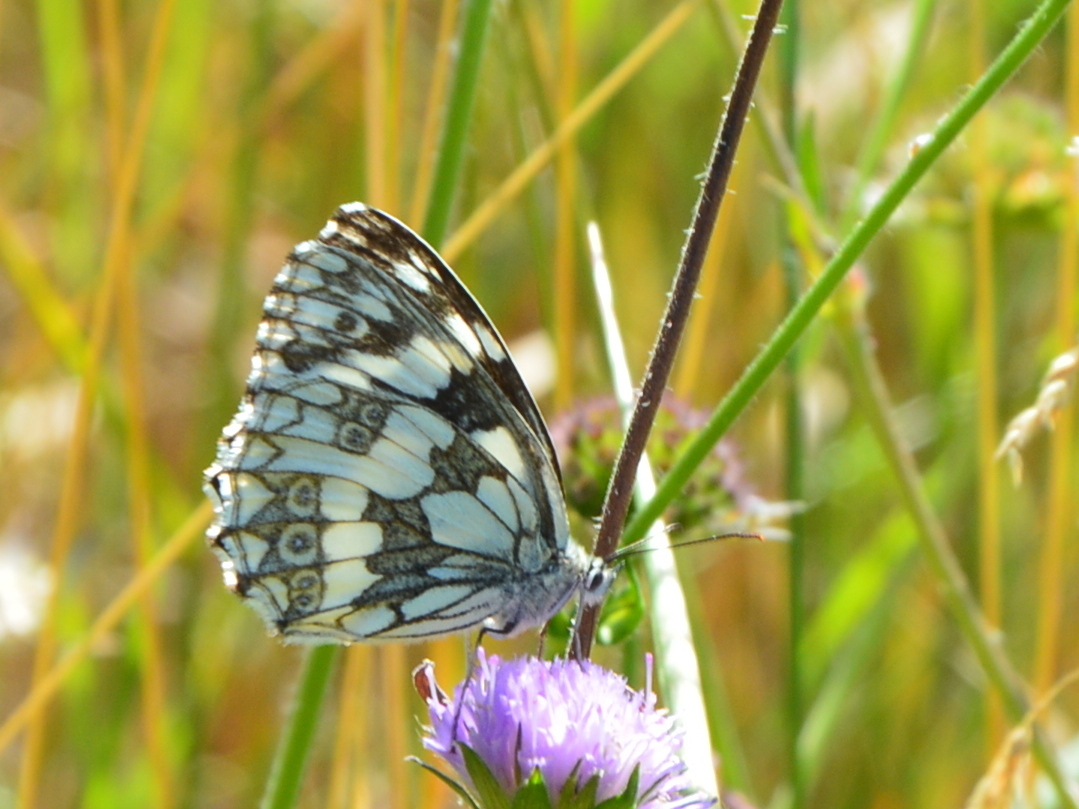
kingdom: Animalia
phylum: Arthropoda
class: Insecta
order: Lepidoptera
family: Nymphalidae
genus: Melanargia
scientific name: Melanargia galathea
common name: Marbled white
